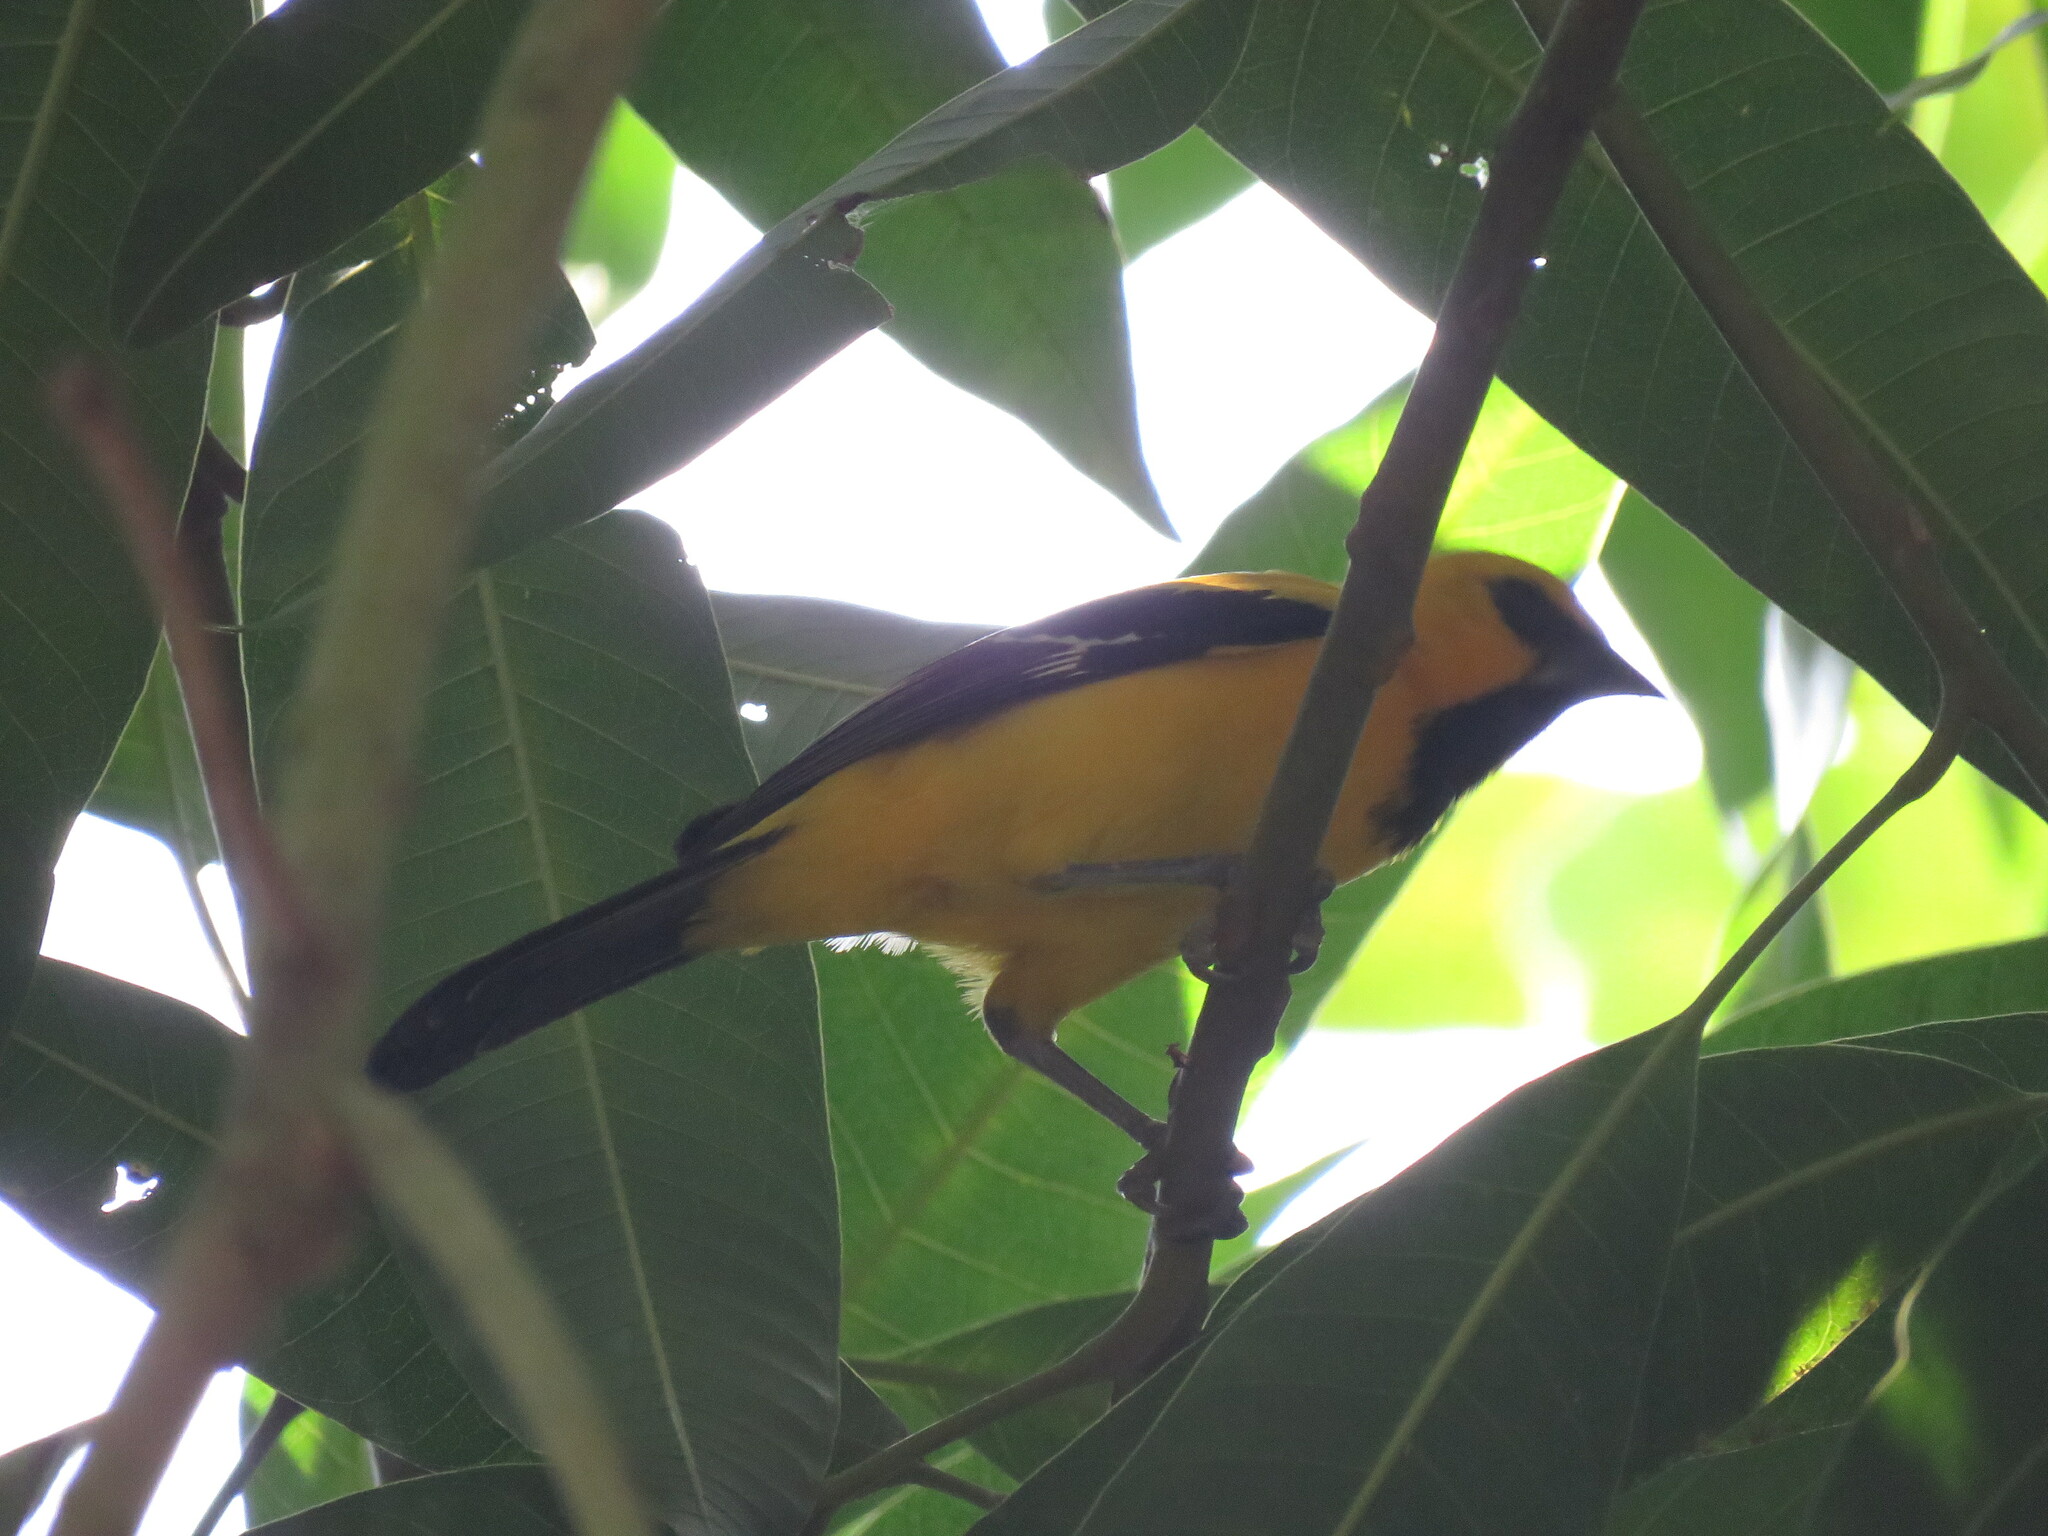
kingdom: Animalia
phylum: Chordata
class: Aves
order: Passeriformes
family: Icteridae
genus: Icterus
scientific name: Icterus nigrogularis
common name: Yellow oriole
